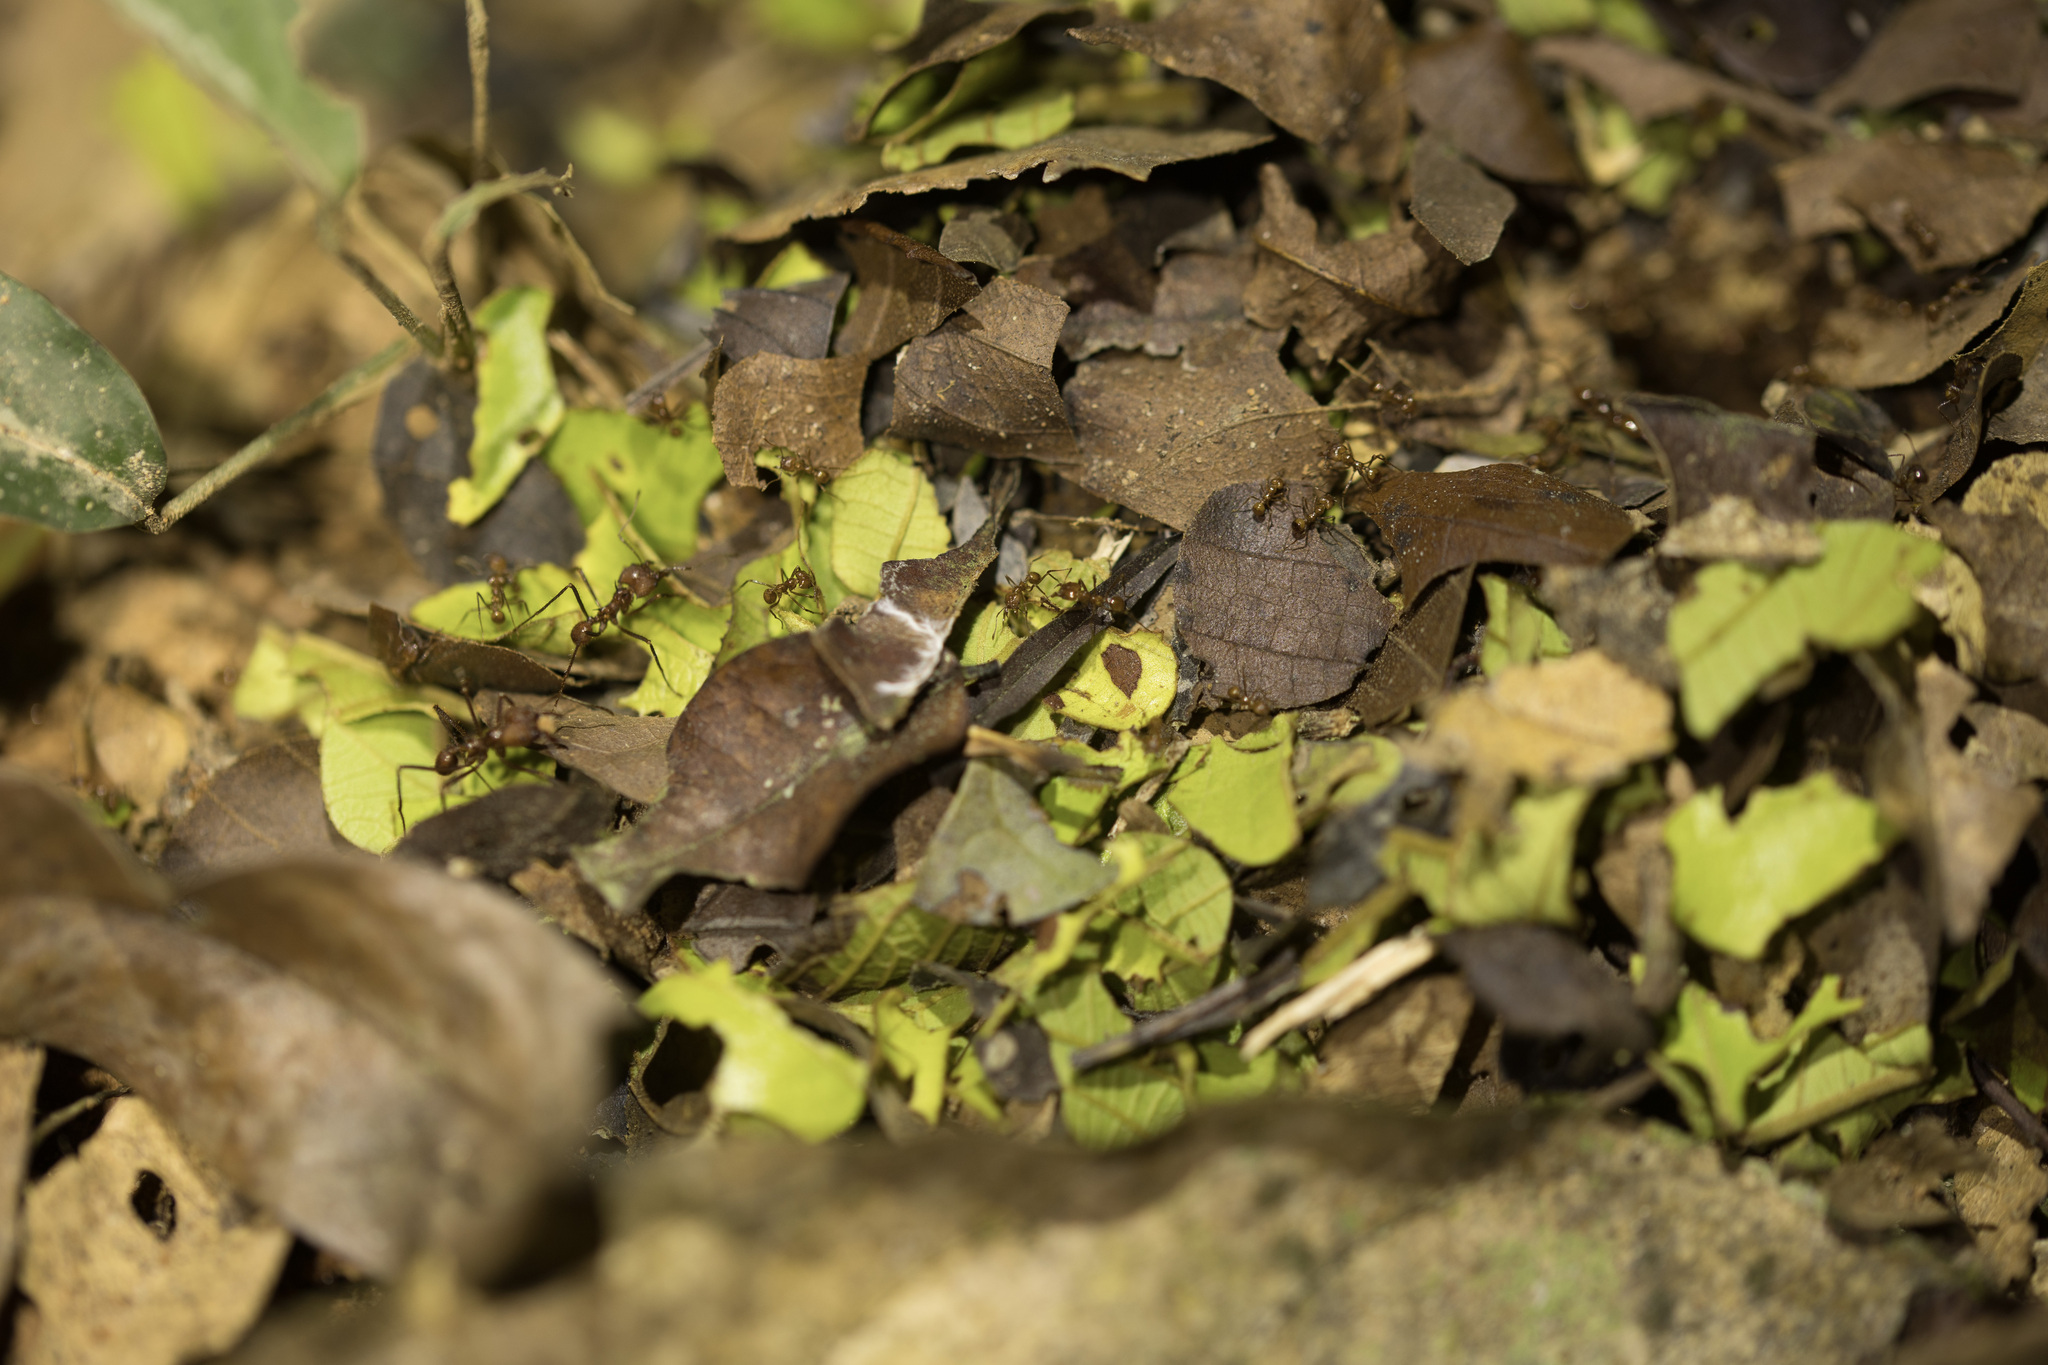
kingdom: Animalia
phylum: Arthropoda
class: Insecta
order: Hymenoptera
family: Formicidae
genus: Atta
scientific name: Atta cephalotes
